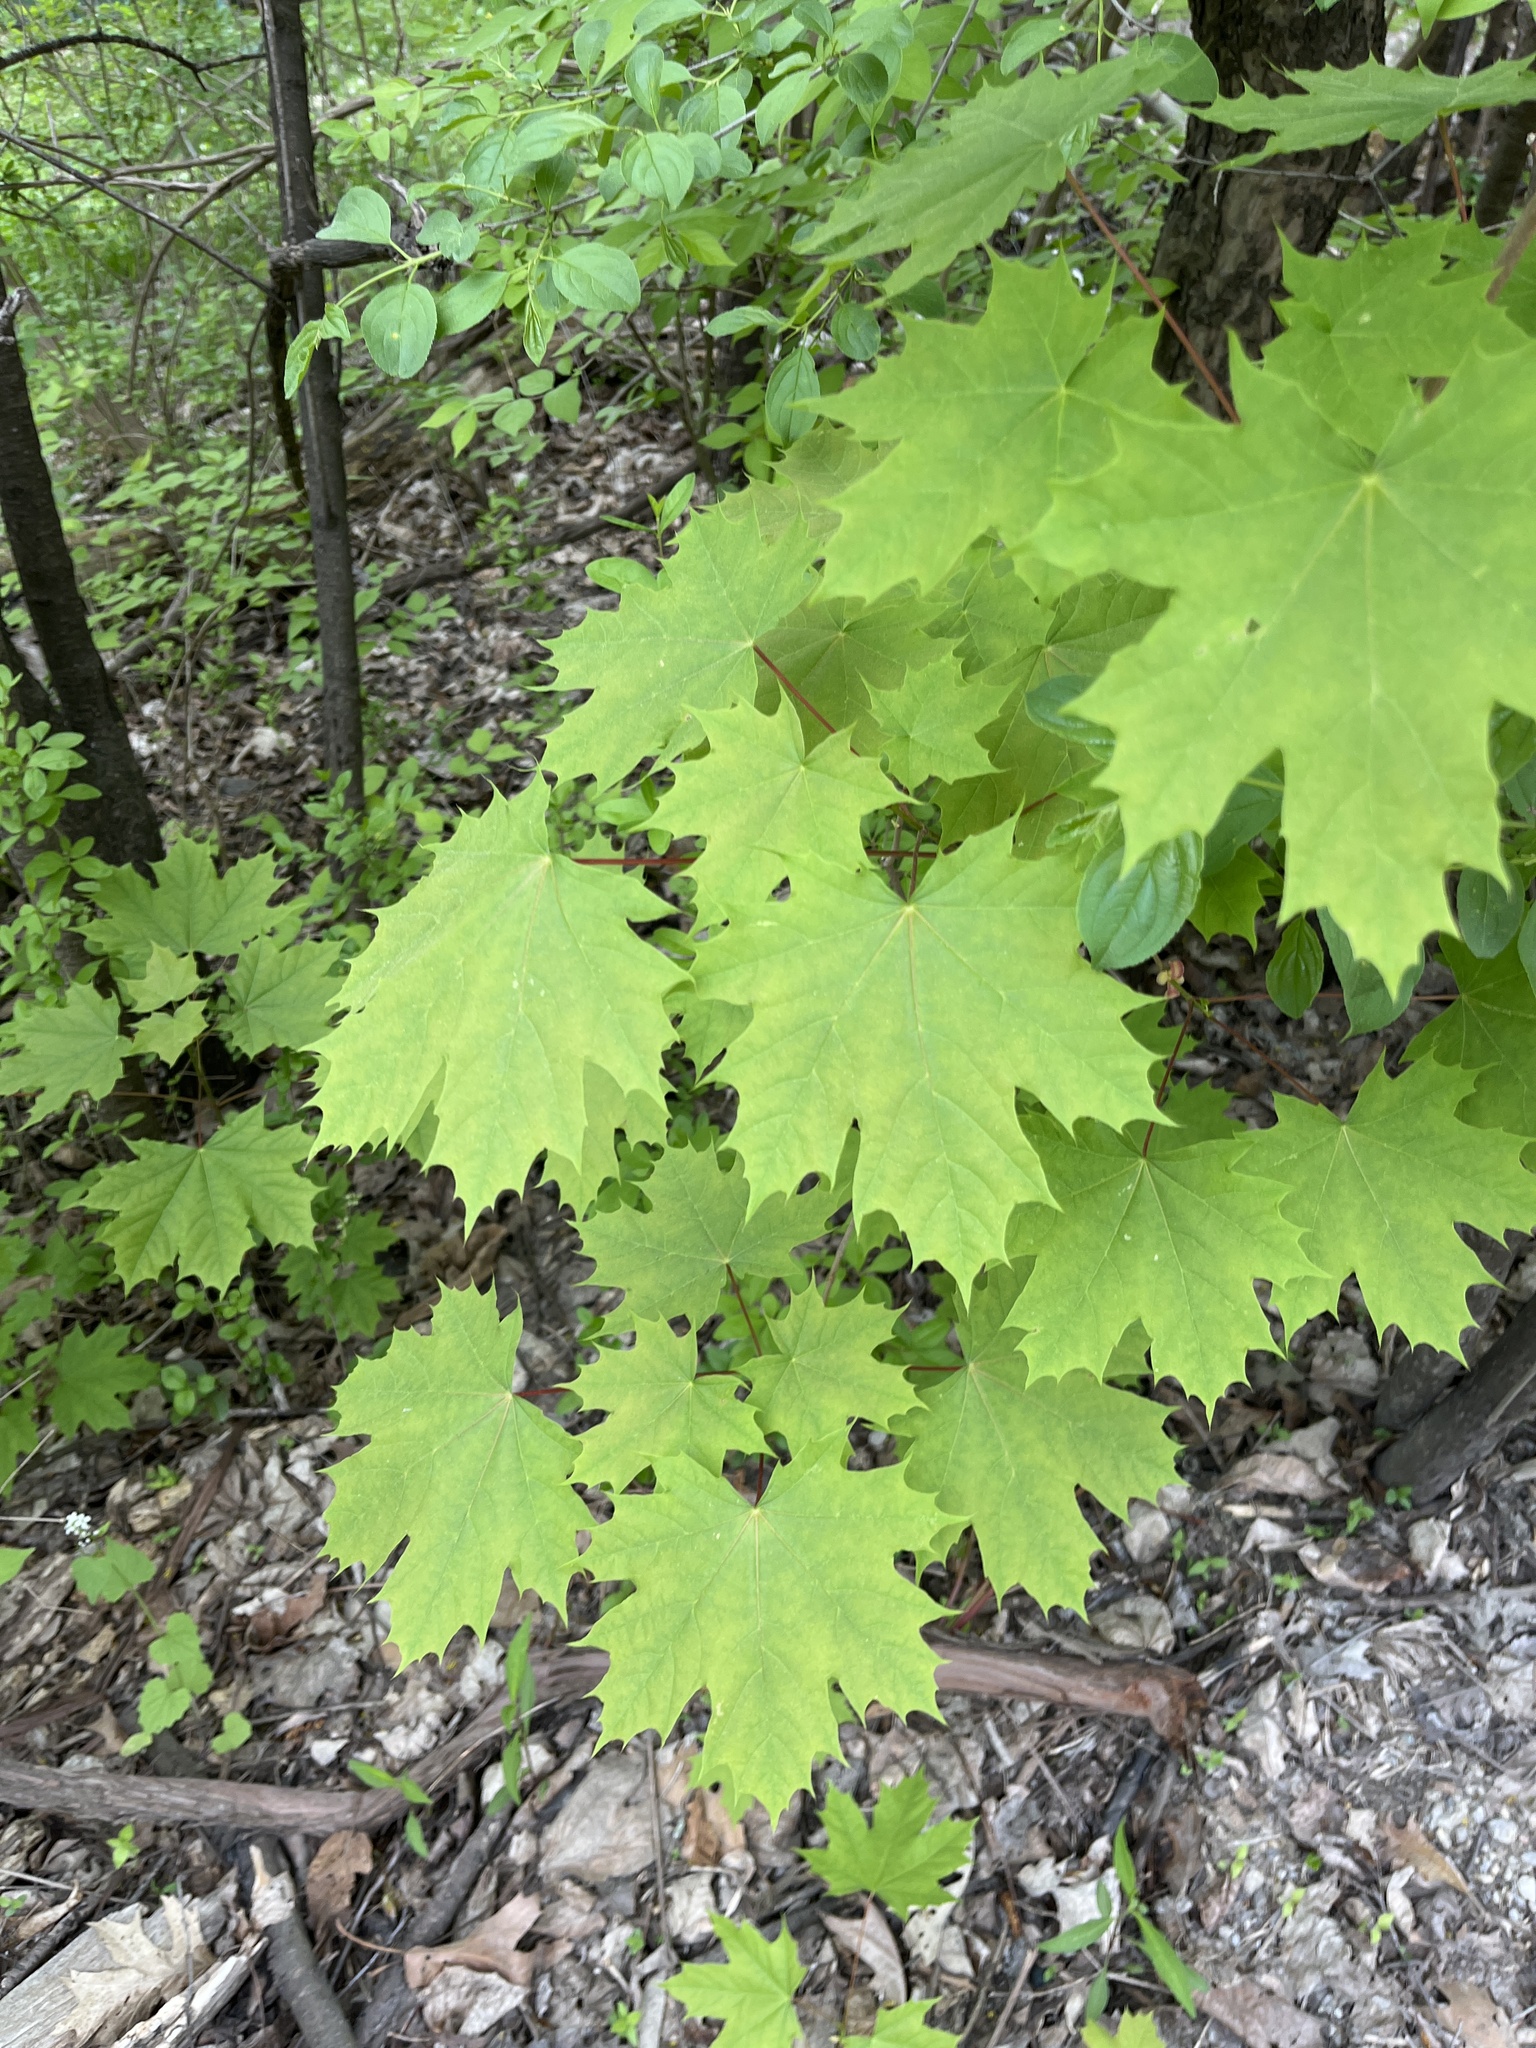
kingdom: Plantae
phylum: Tracheophyta
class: Magnoliopsida
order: Sapindales
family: Sapindaceae
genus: Acer
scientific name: Acer platanoides
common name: Norway maple
